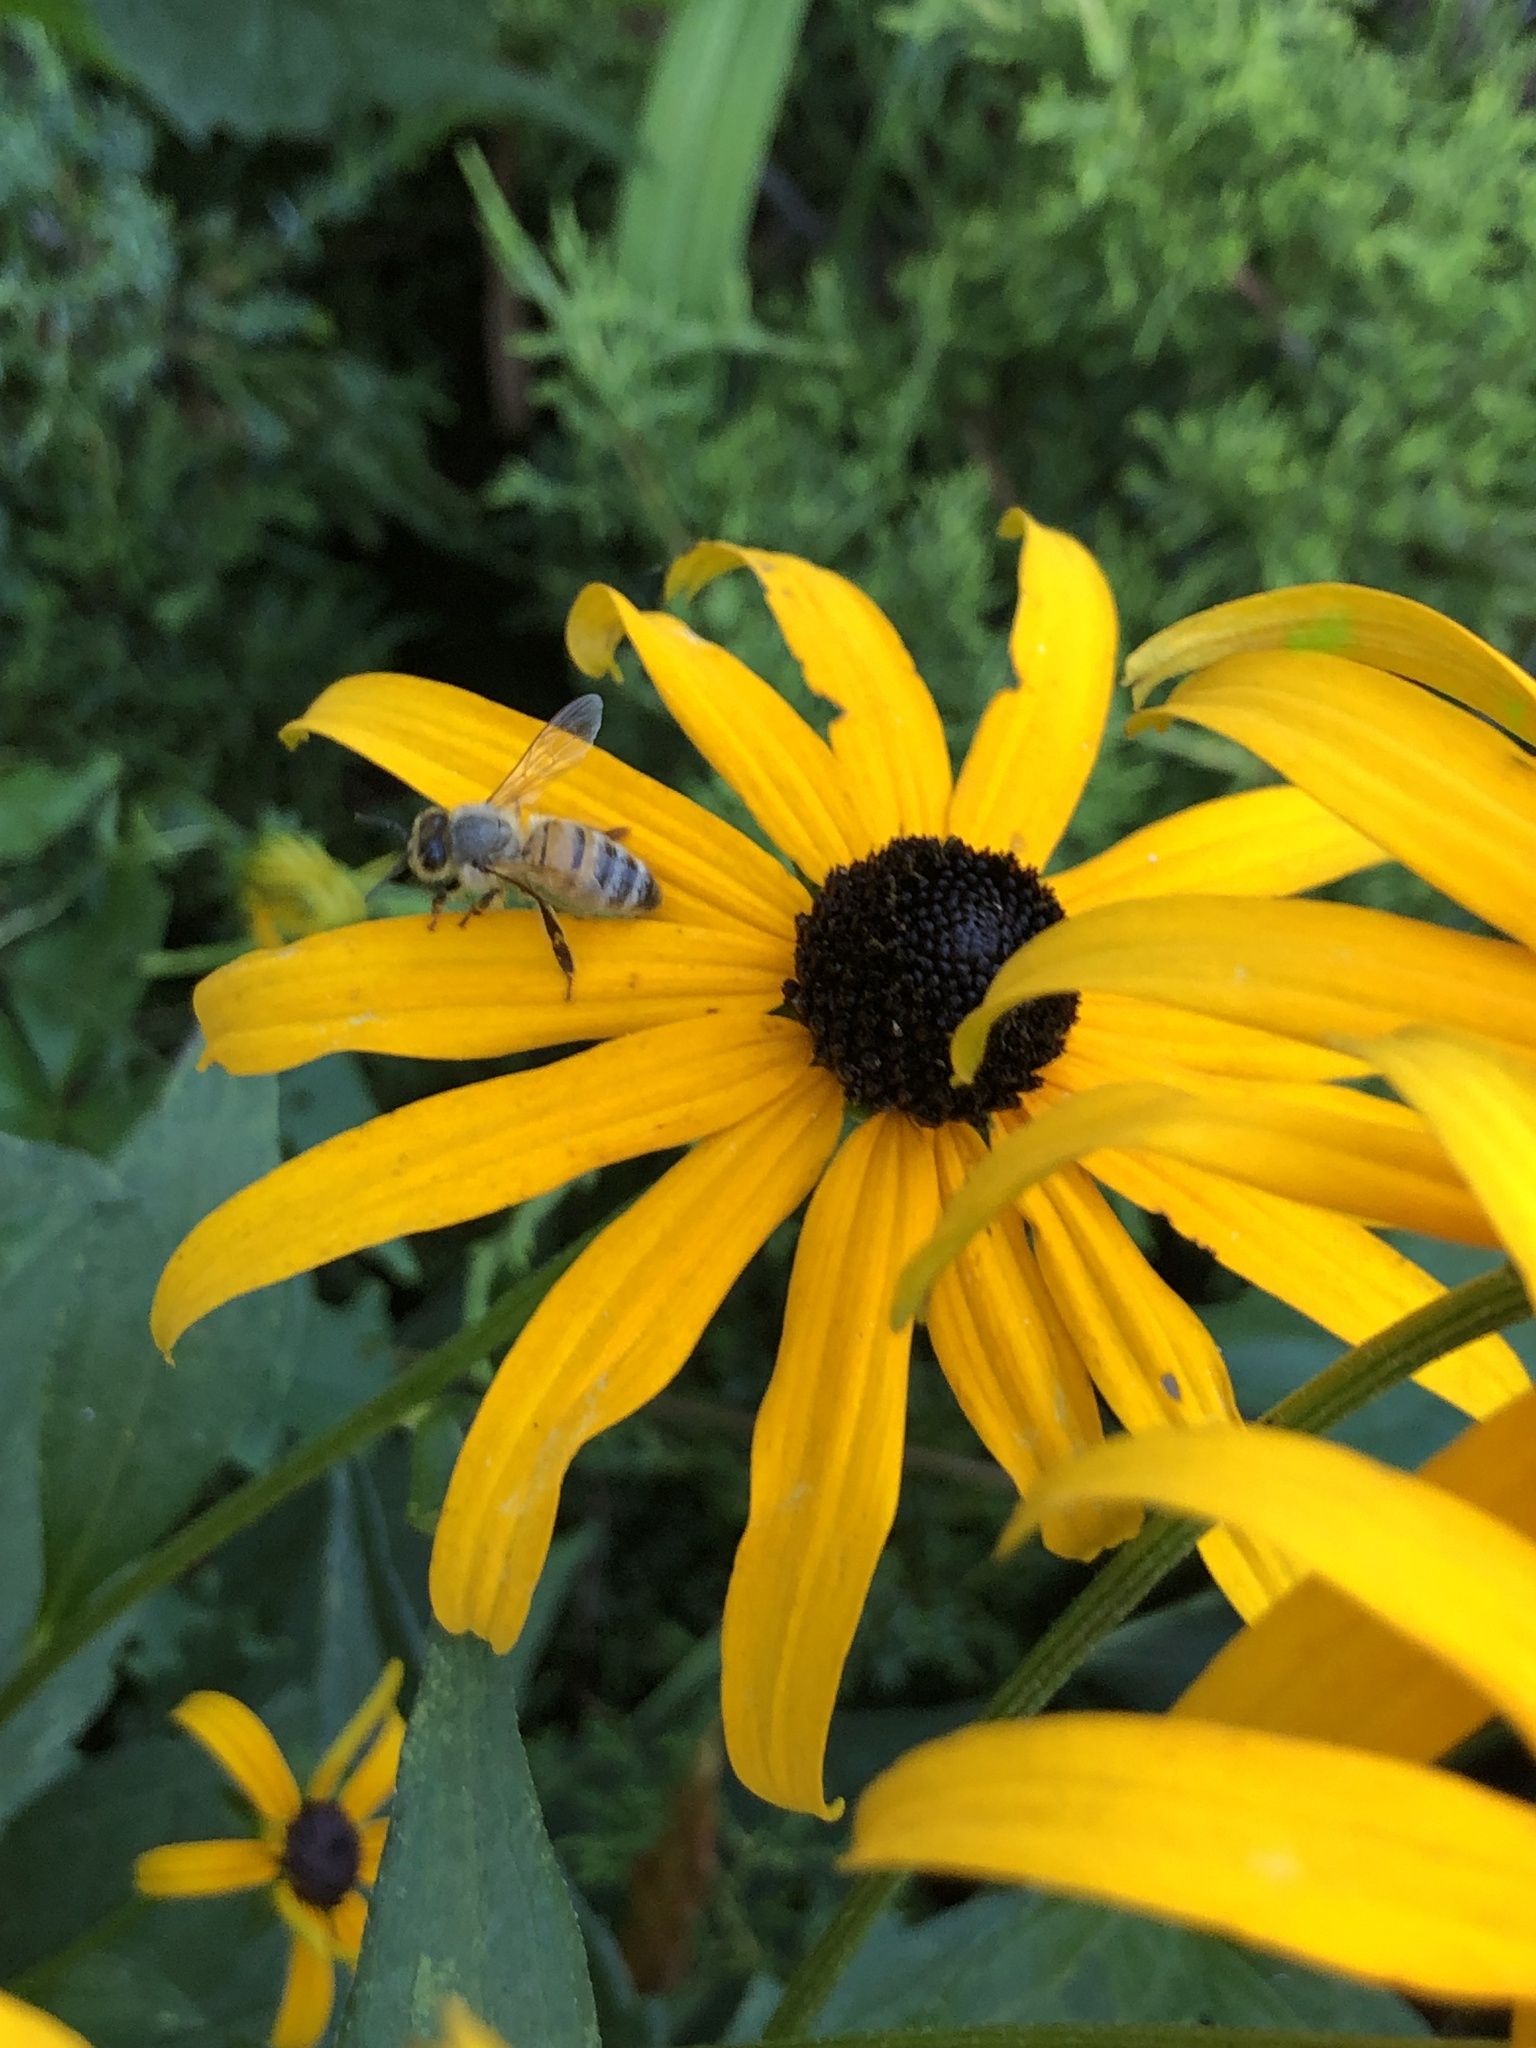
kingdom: Animalia
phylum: Arthropoda
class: Insecta
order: Hymenoptera
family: Apidae
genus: Apis
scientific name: Apis mellifera
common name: Honey bee
